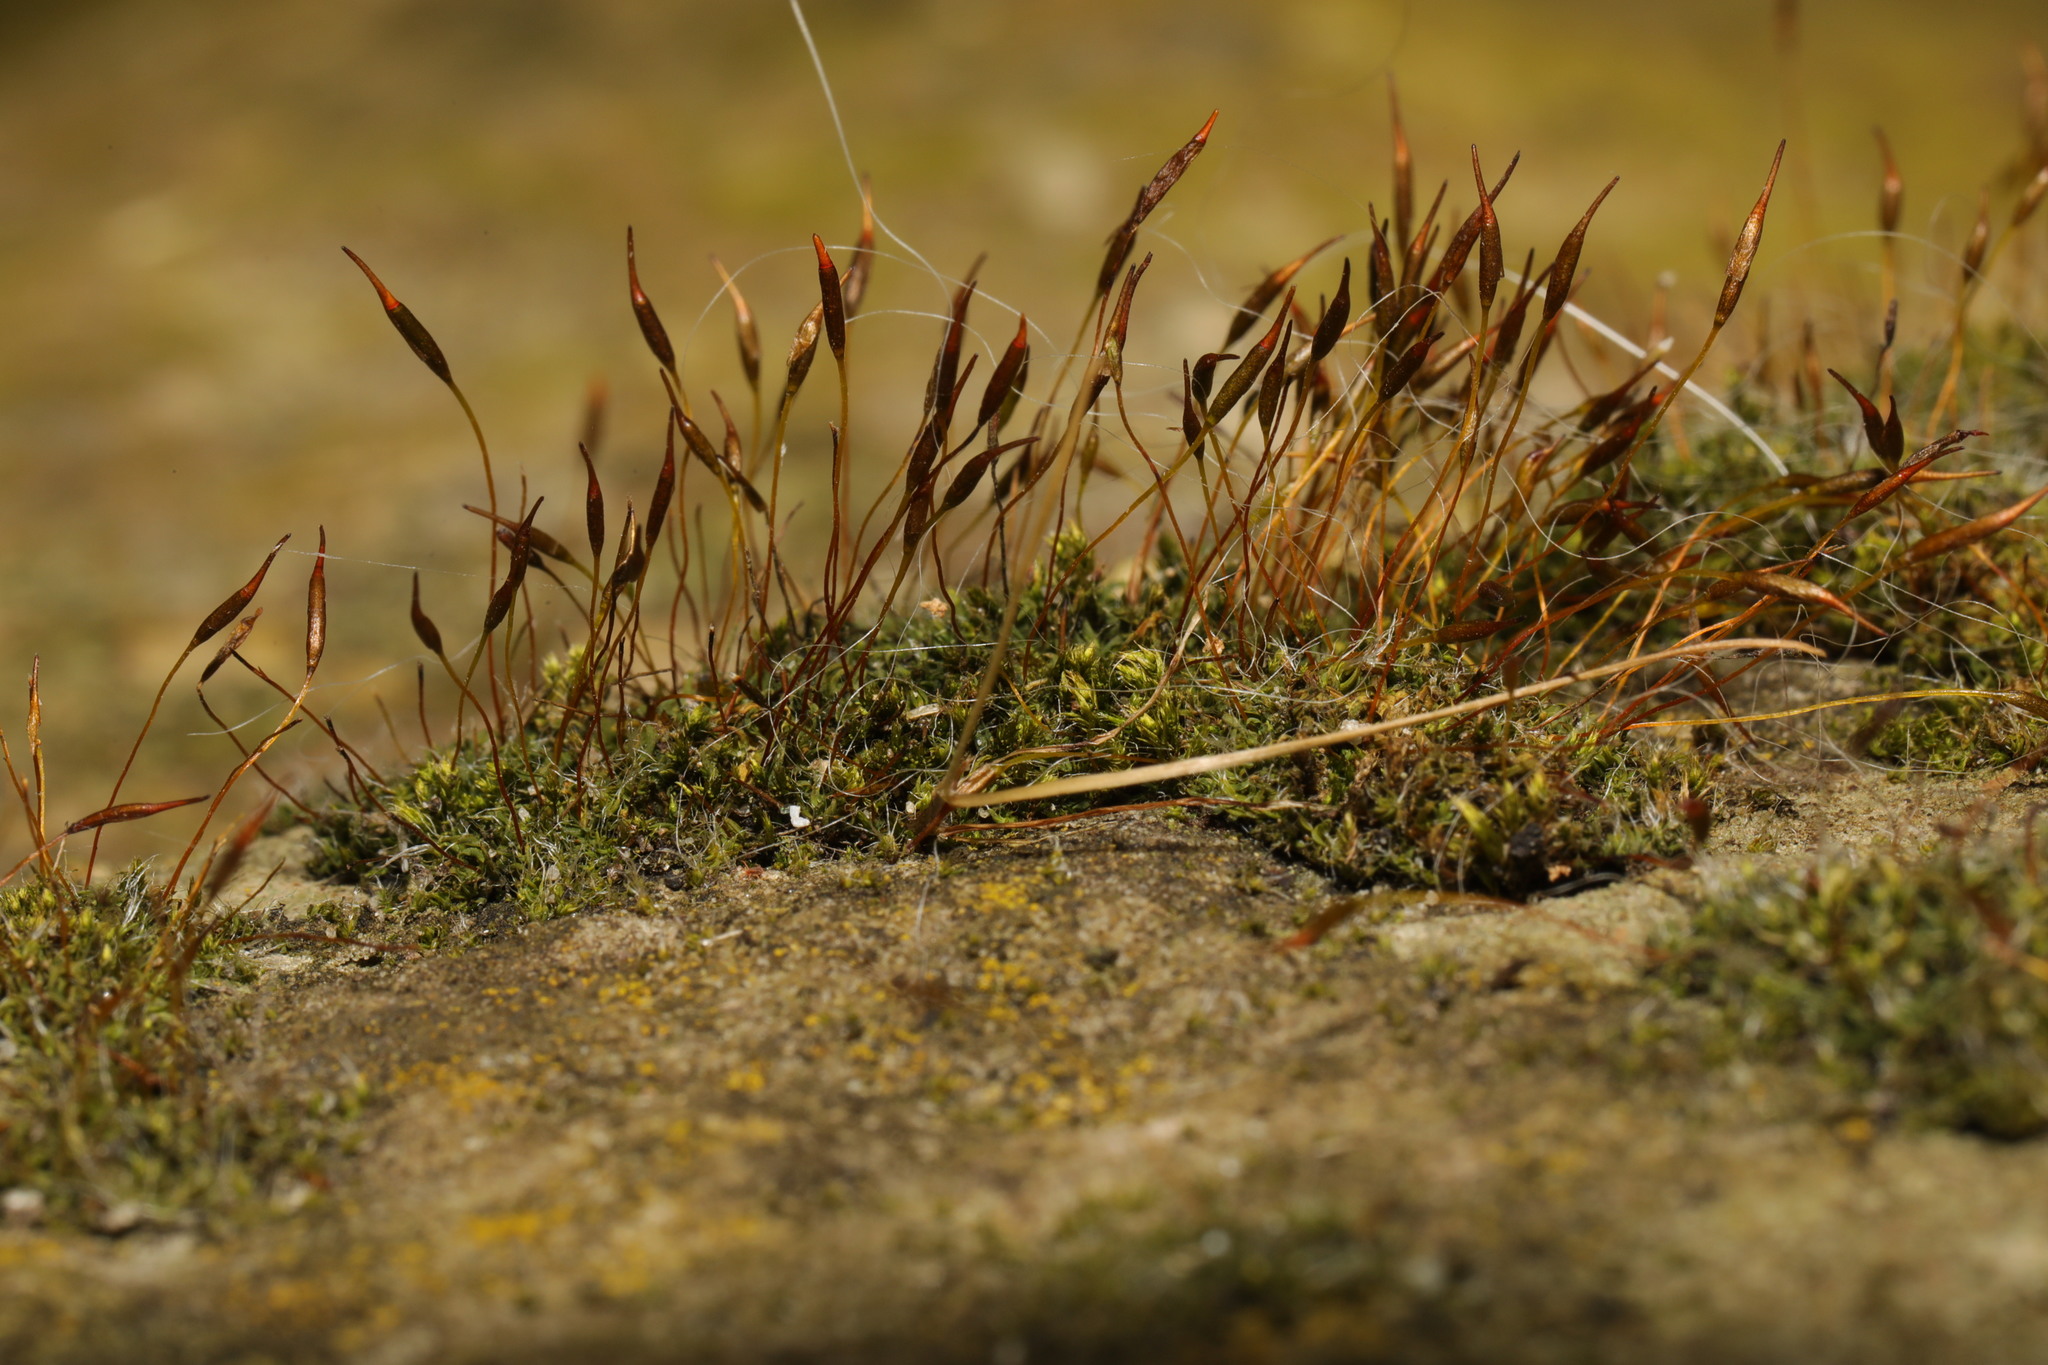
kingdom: Plantae
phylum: Bryophyta
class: Bryopsida
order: Pottiales
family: Pottiaceae
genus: Tortula
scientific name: Tortula muralis
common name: Wall screw-moss
